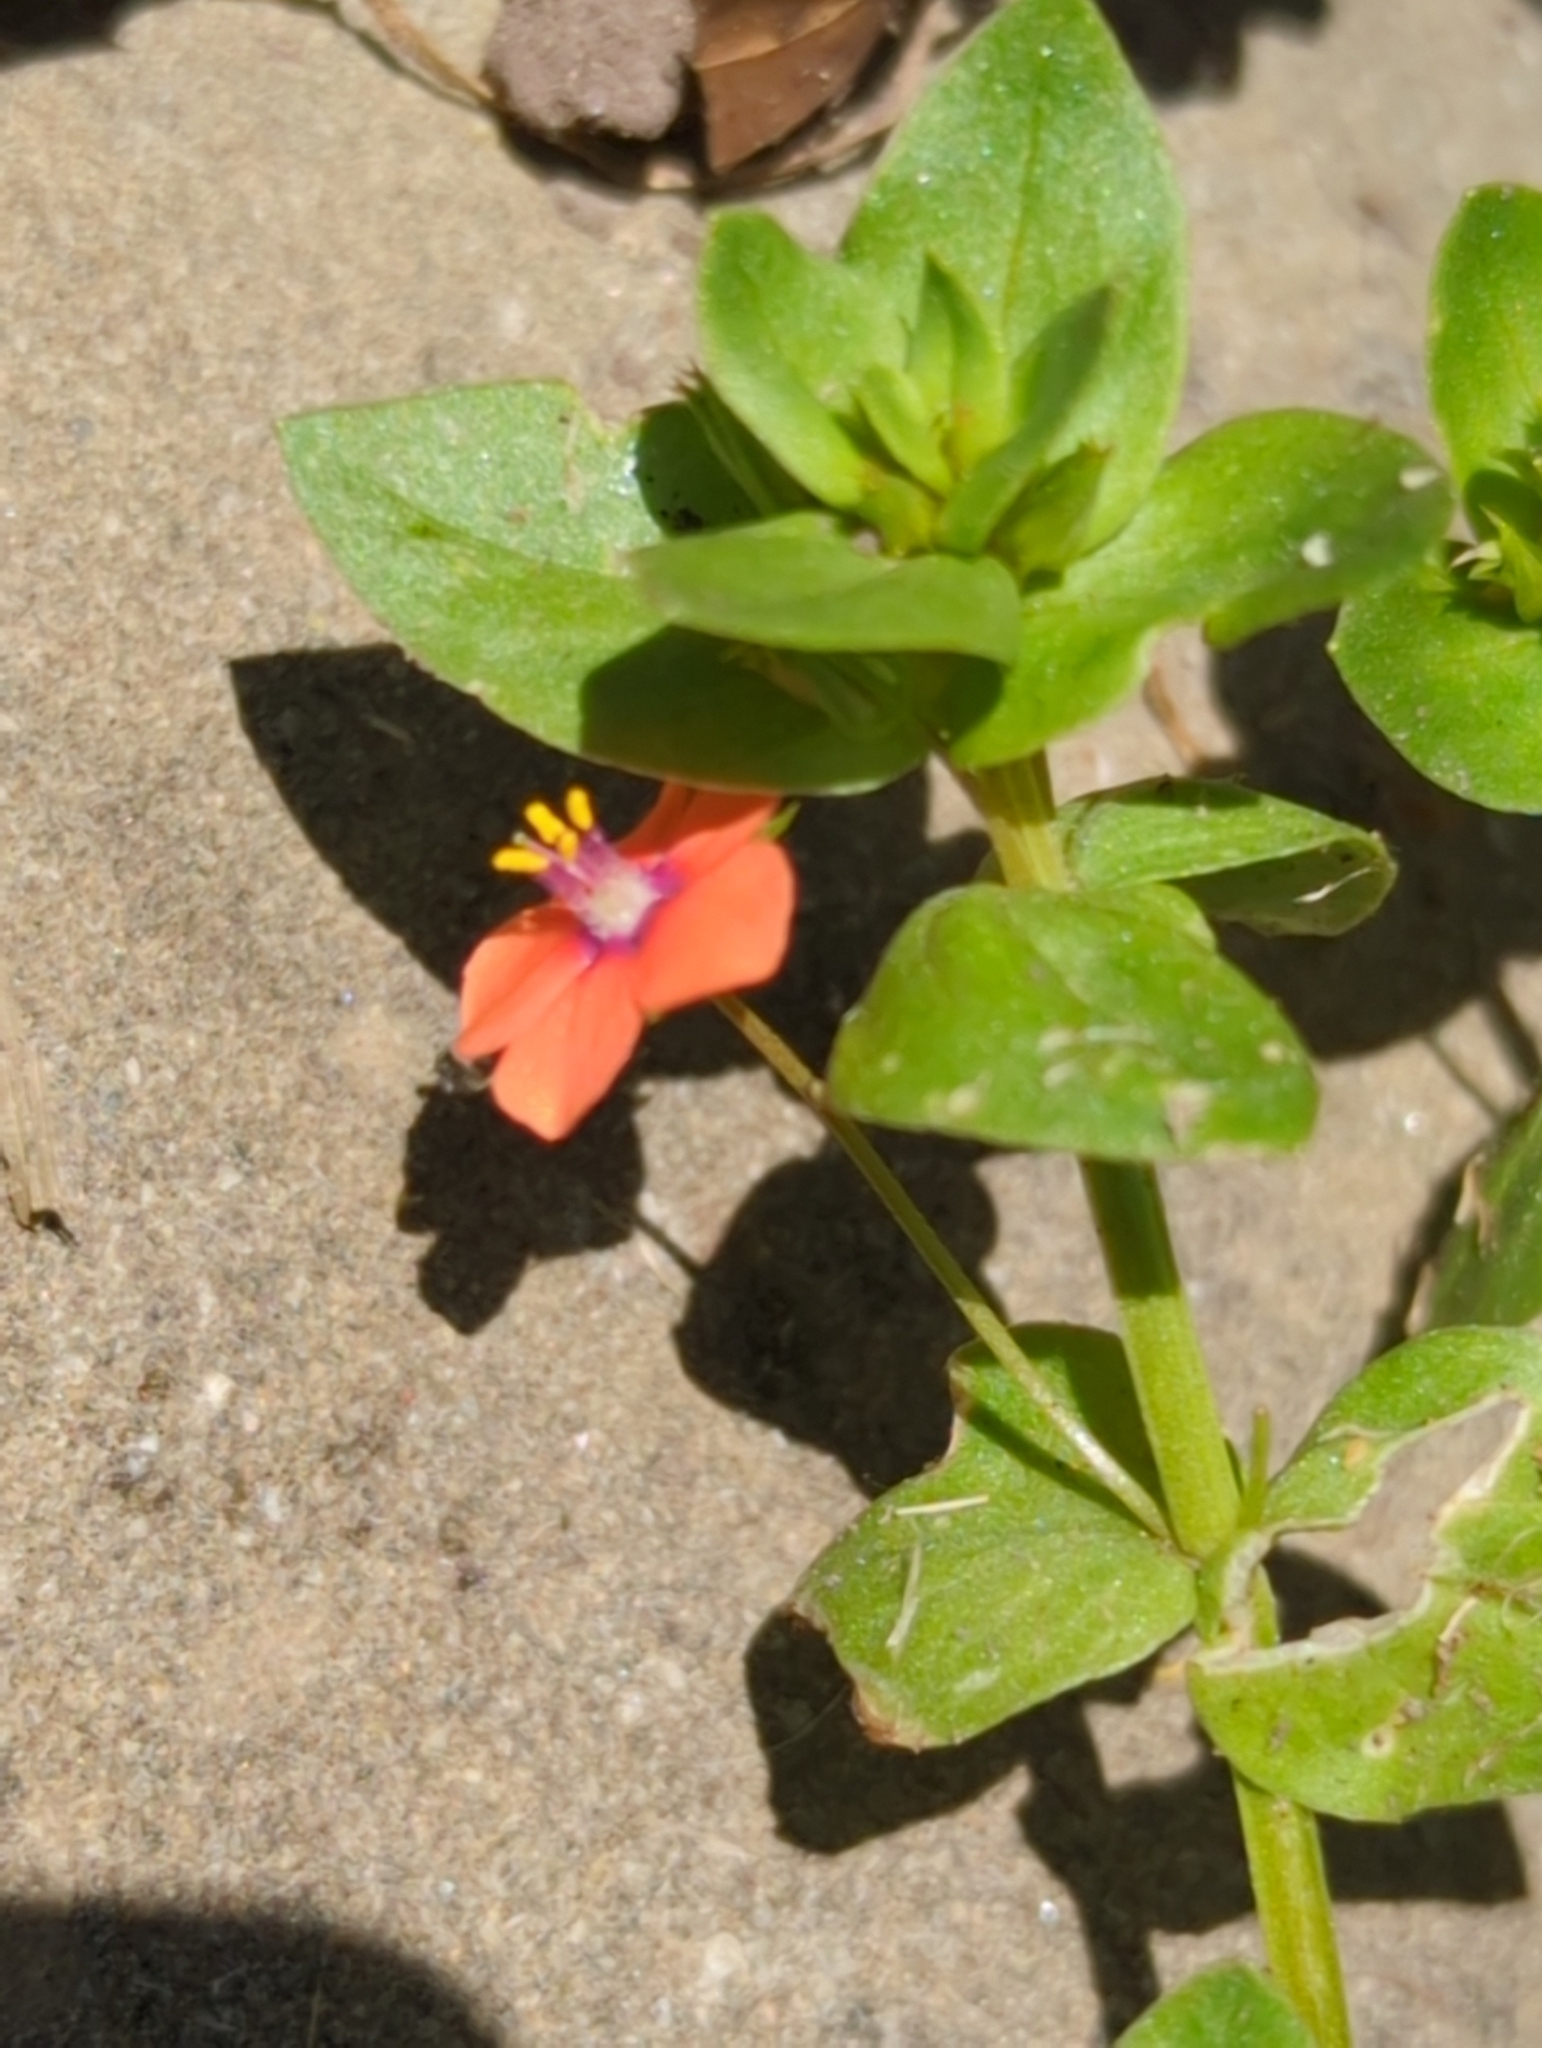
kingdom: Plantae
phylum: Tracheophyta
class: Magnoliopsida
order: Ericales
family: Primulaceae
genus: Lysimachia
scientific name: Lysimachia arvensis
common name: Scarlet pimpernel
